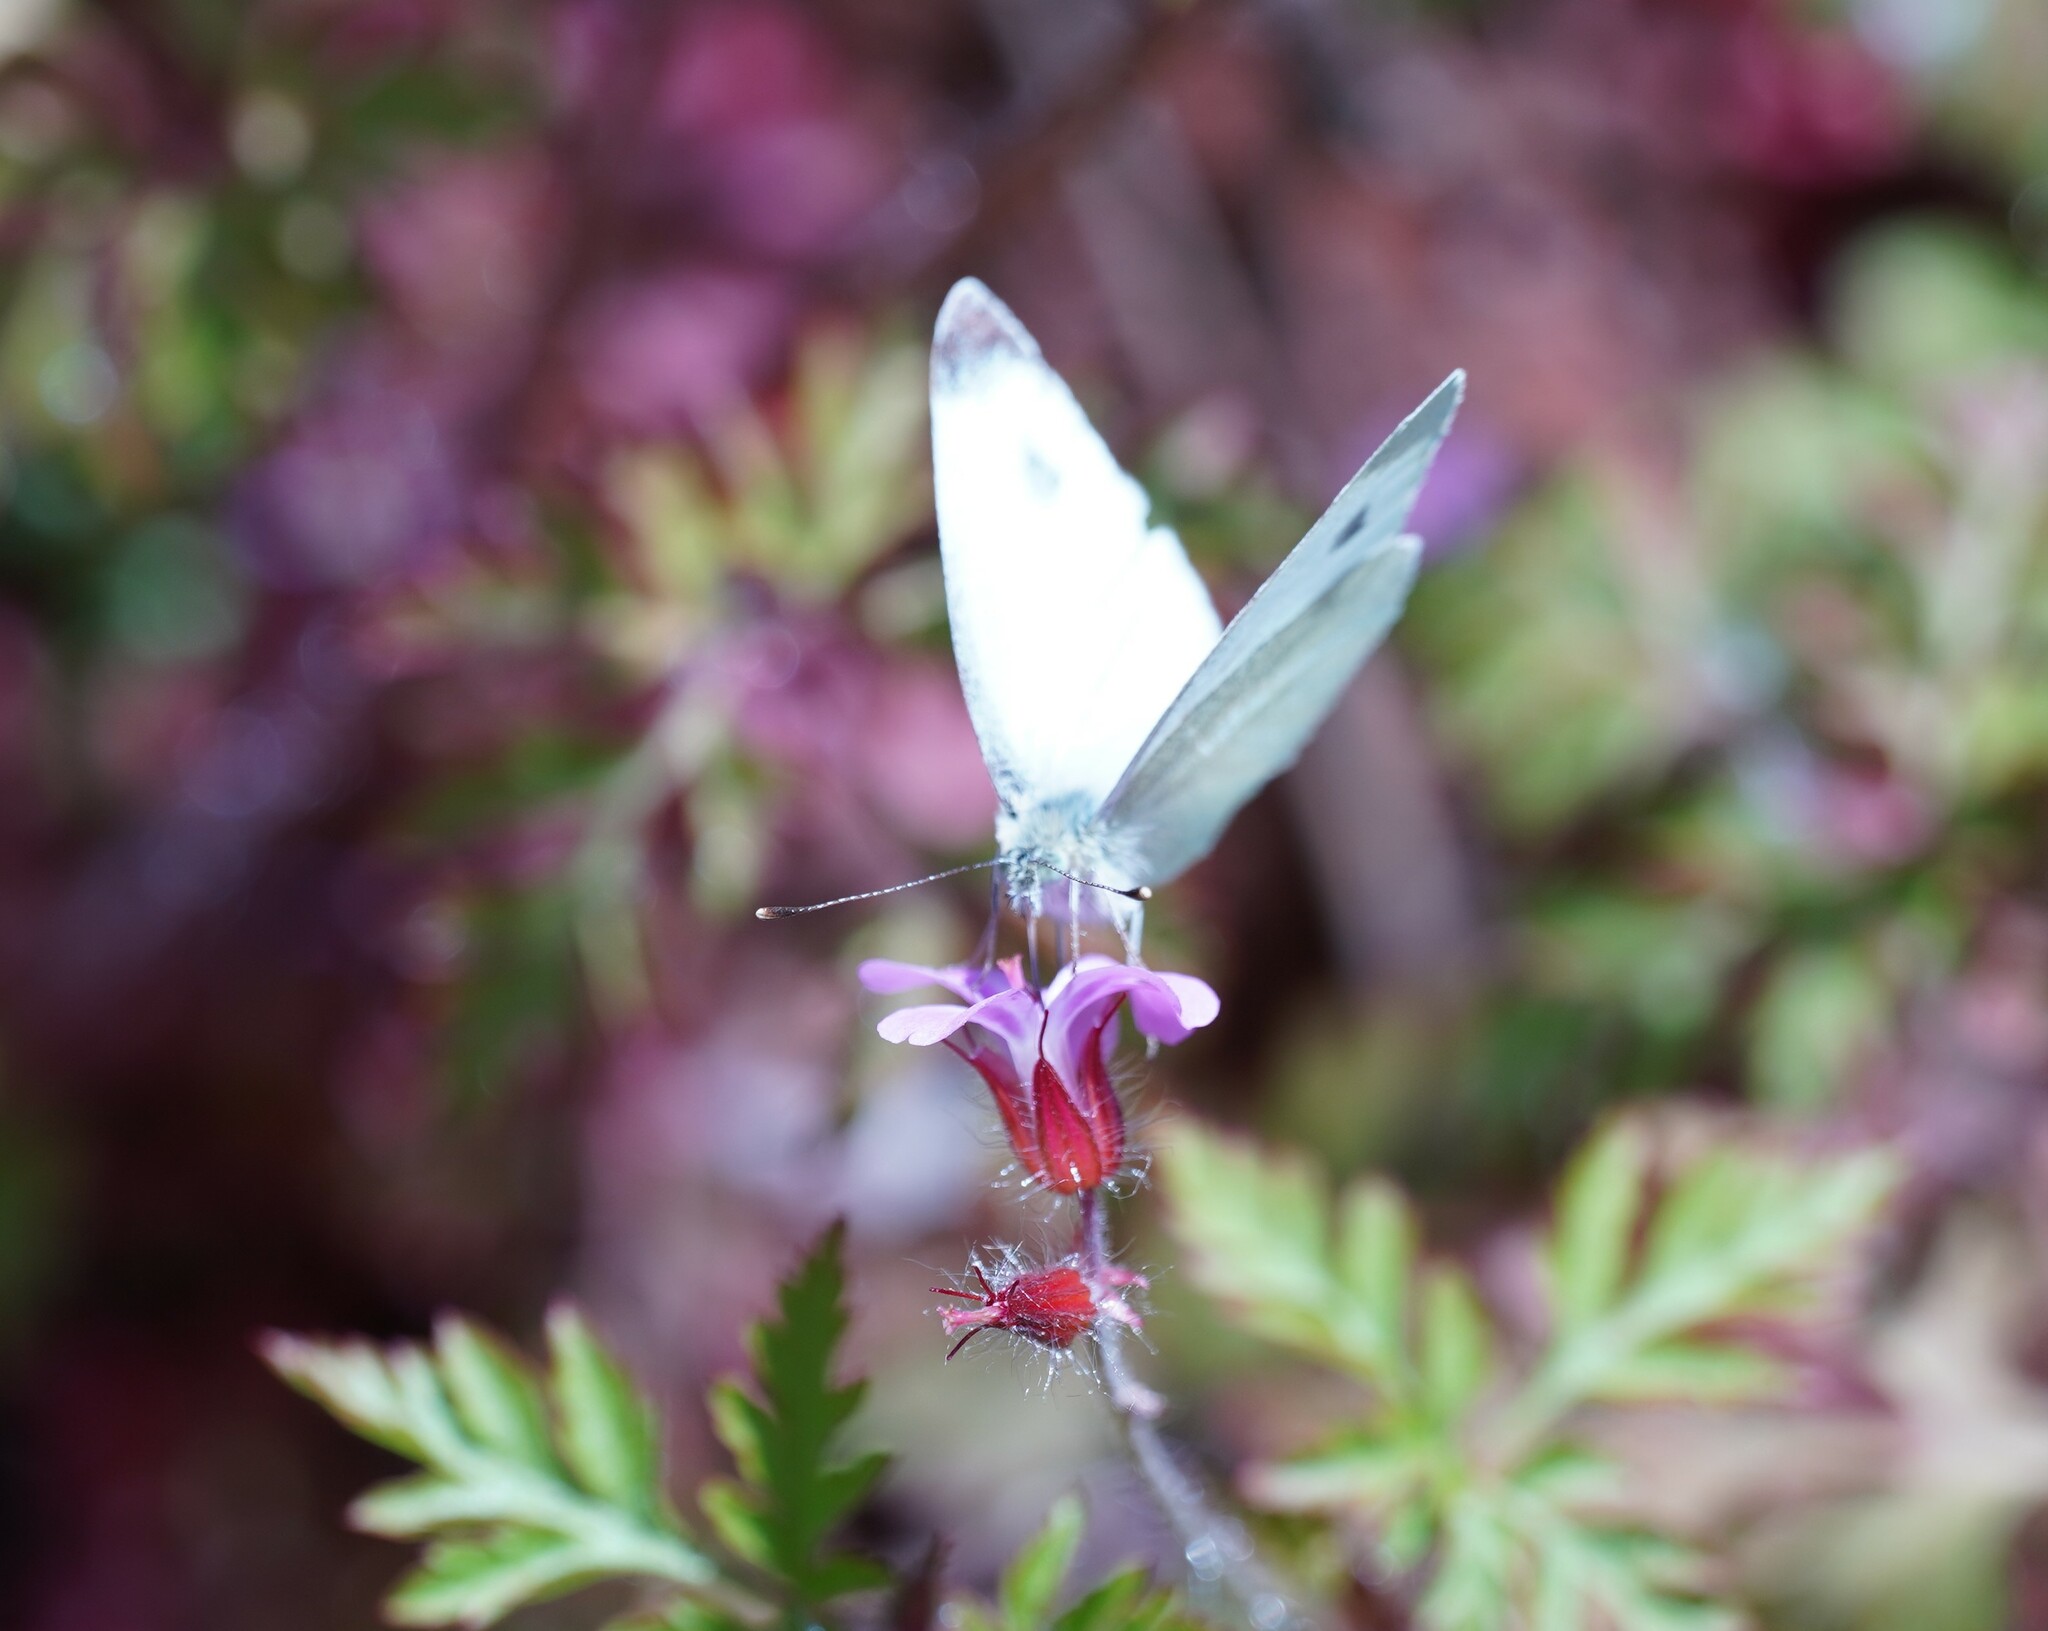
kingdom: Animalia
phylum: Arthropoda
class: Insecta
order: Lepidoptera
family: Pieridae
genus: Pieris
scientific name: Pieris mannii
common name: Southern small white
